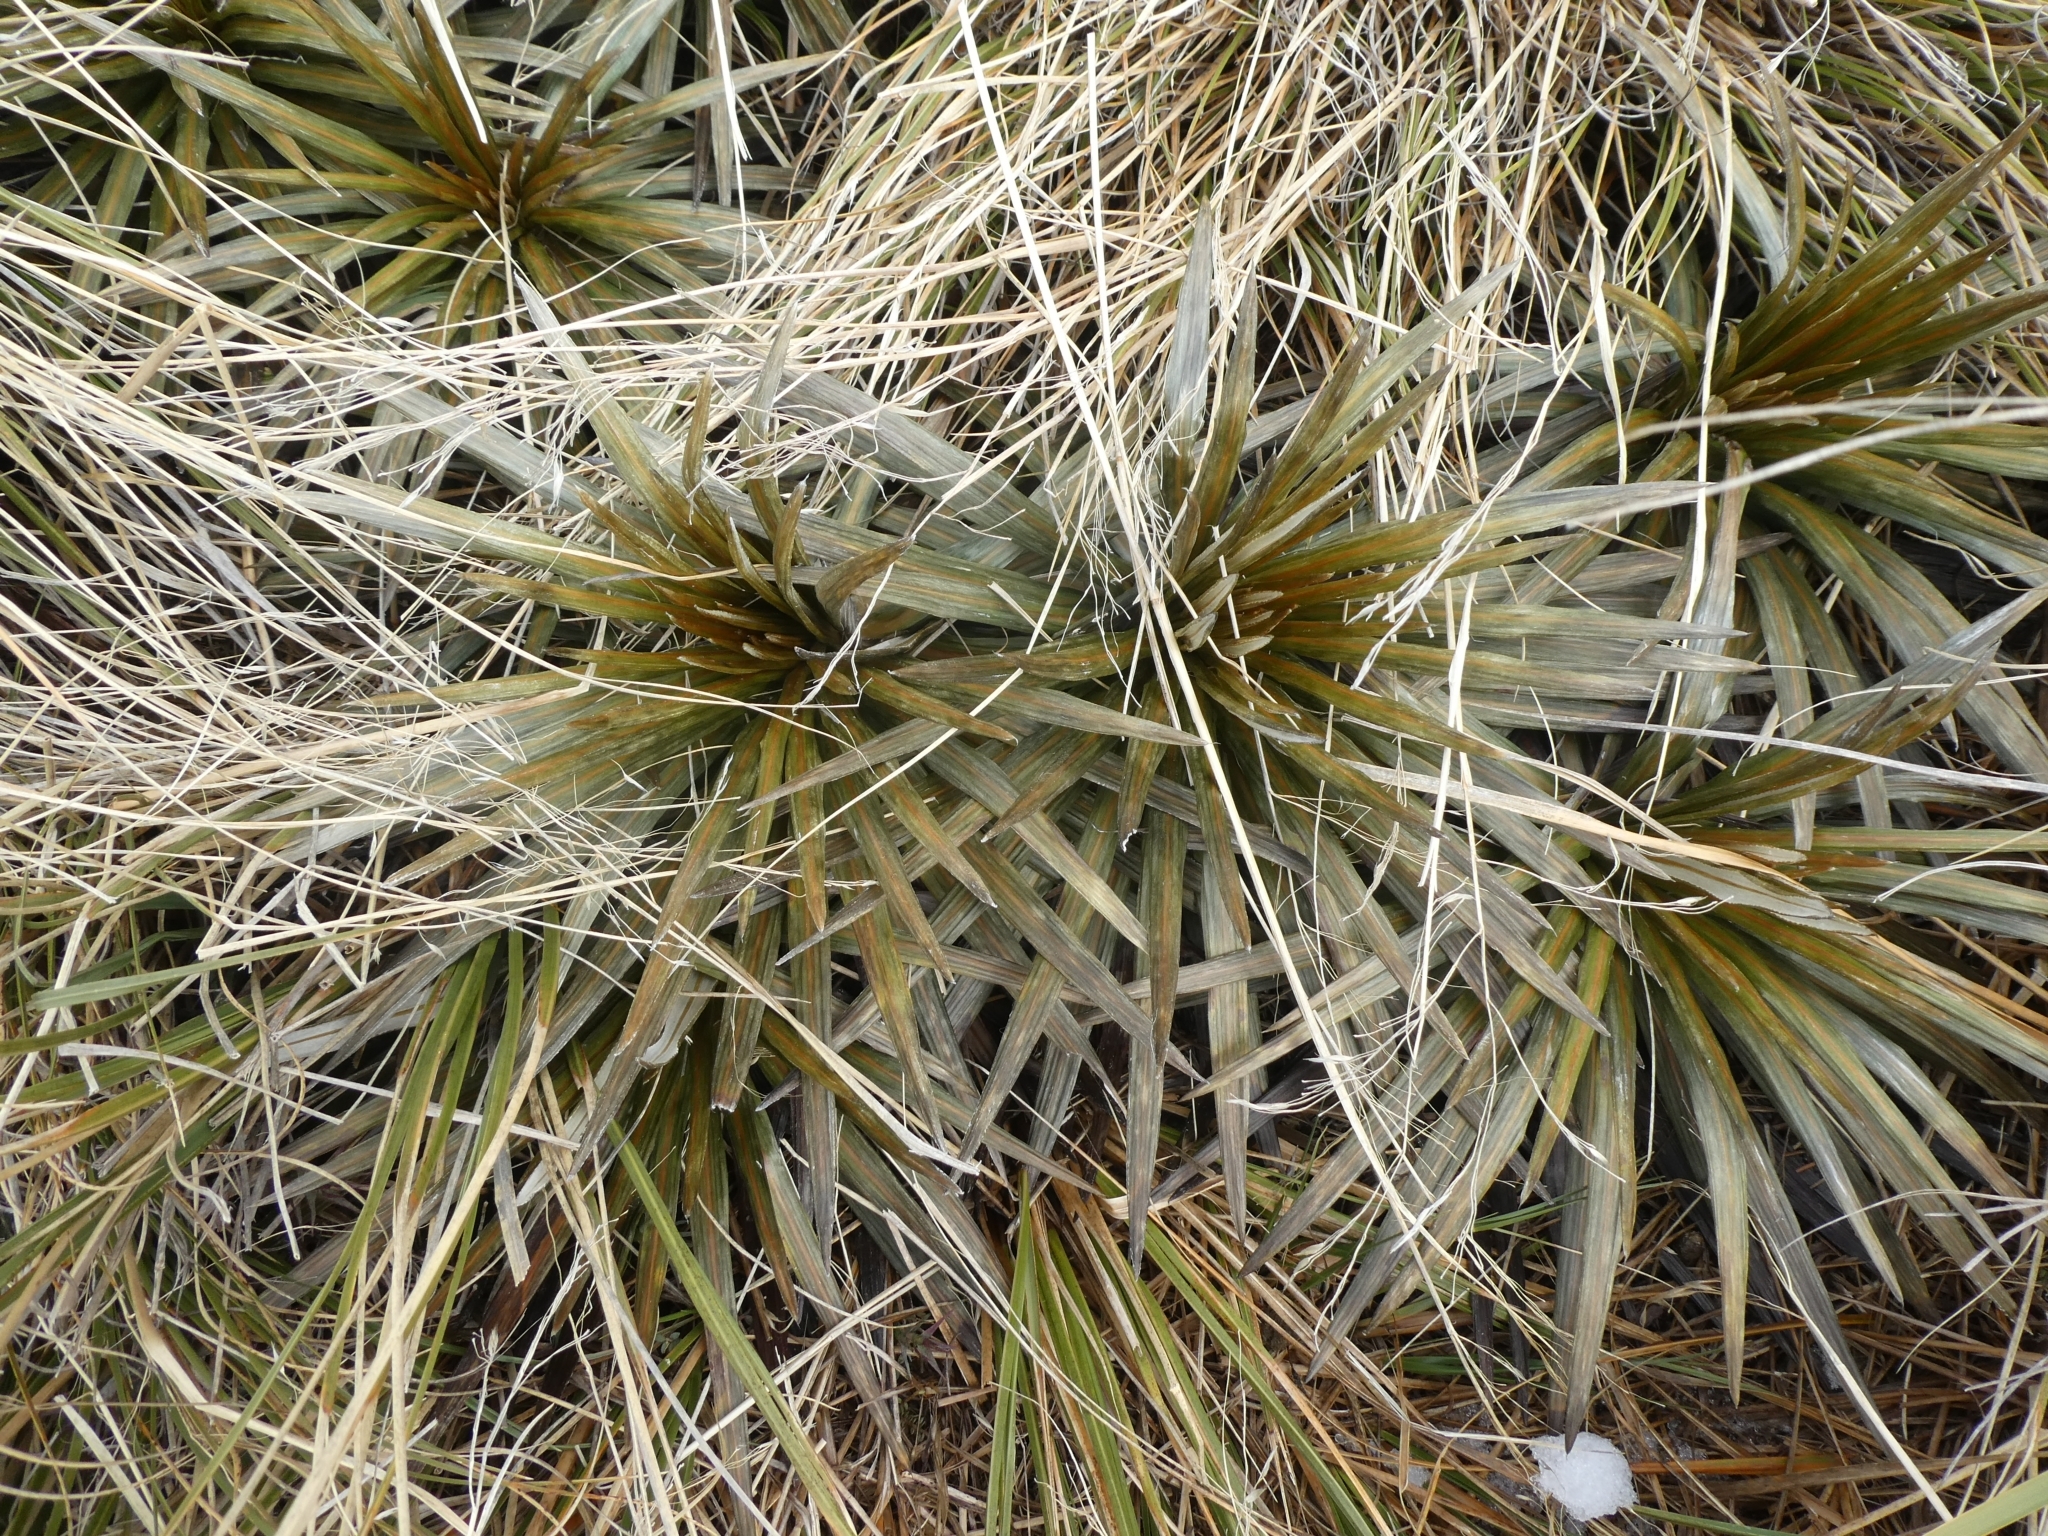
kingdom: Plantae
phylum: Tracheophyta
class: Magnoliopsida
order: Asterales
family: Asteraceae
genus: Celmisia
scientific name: Celmisia armstrongii
